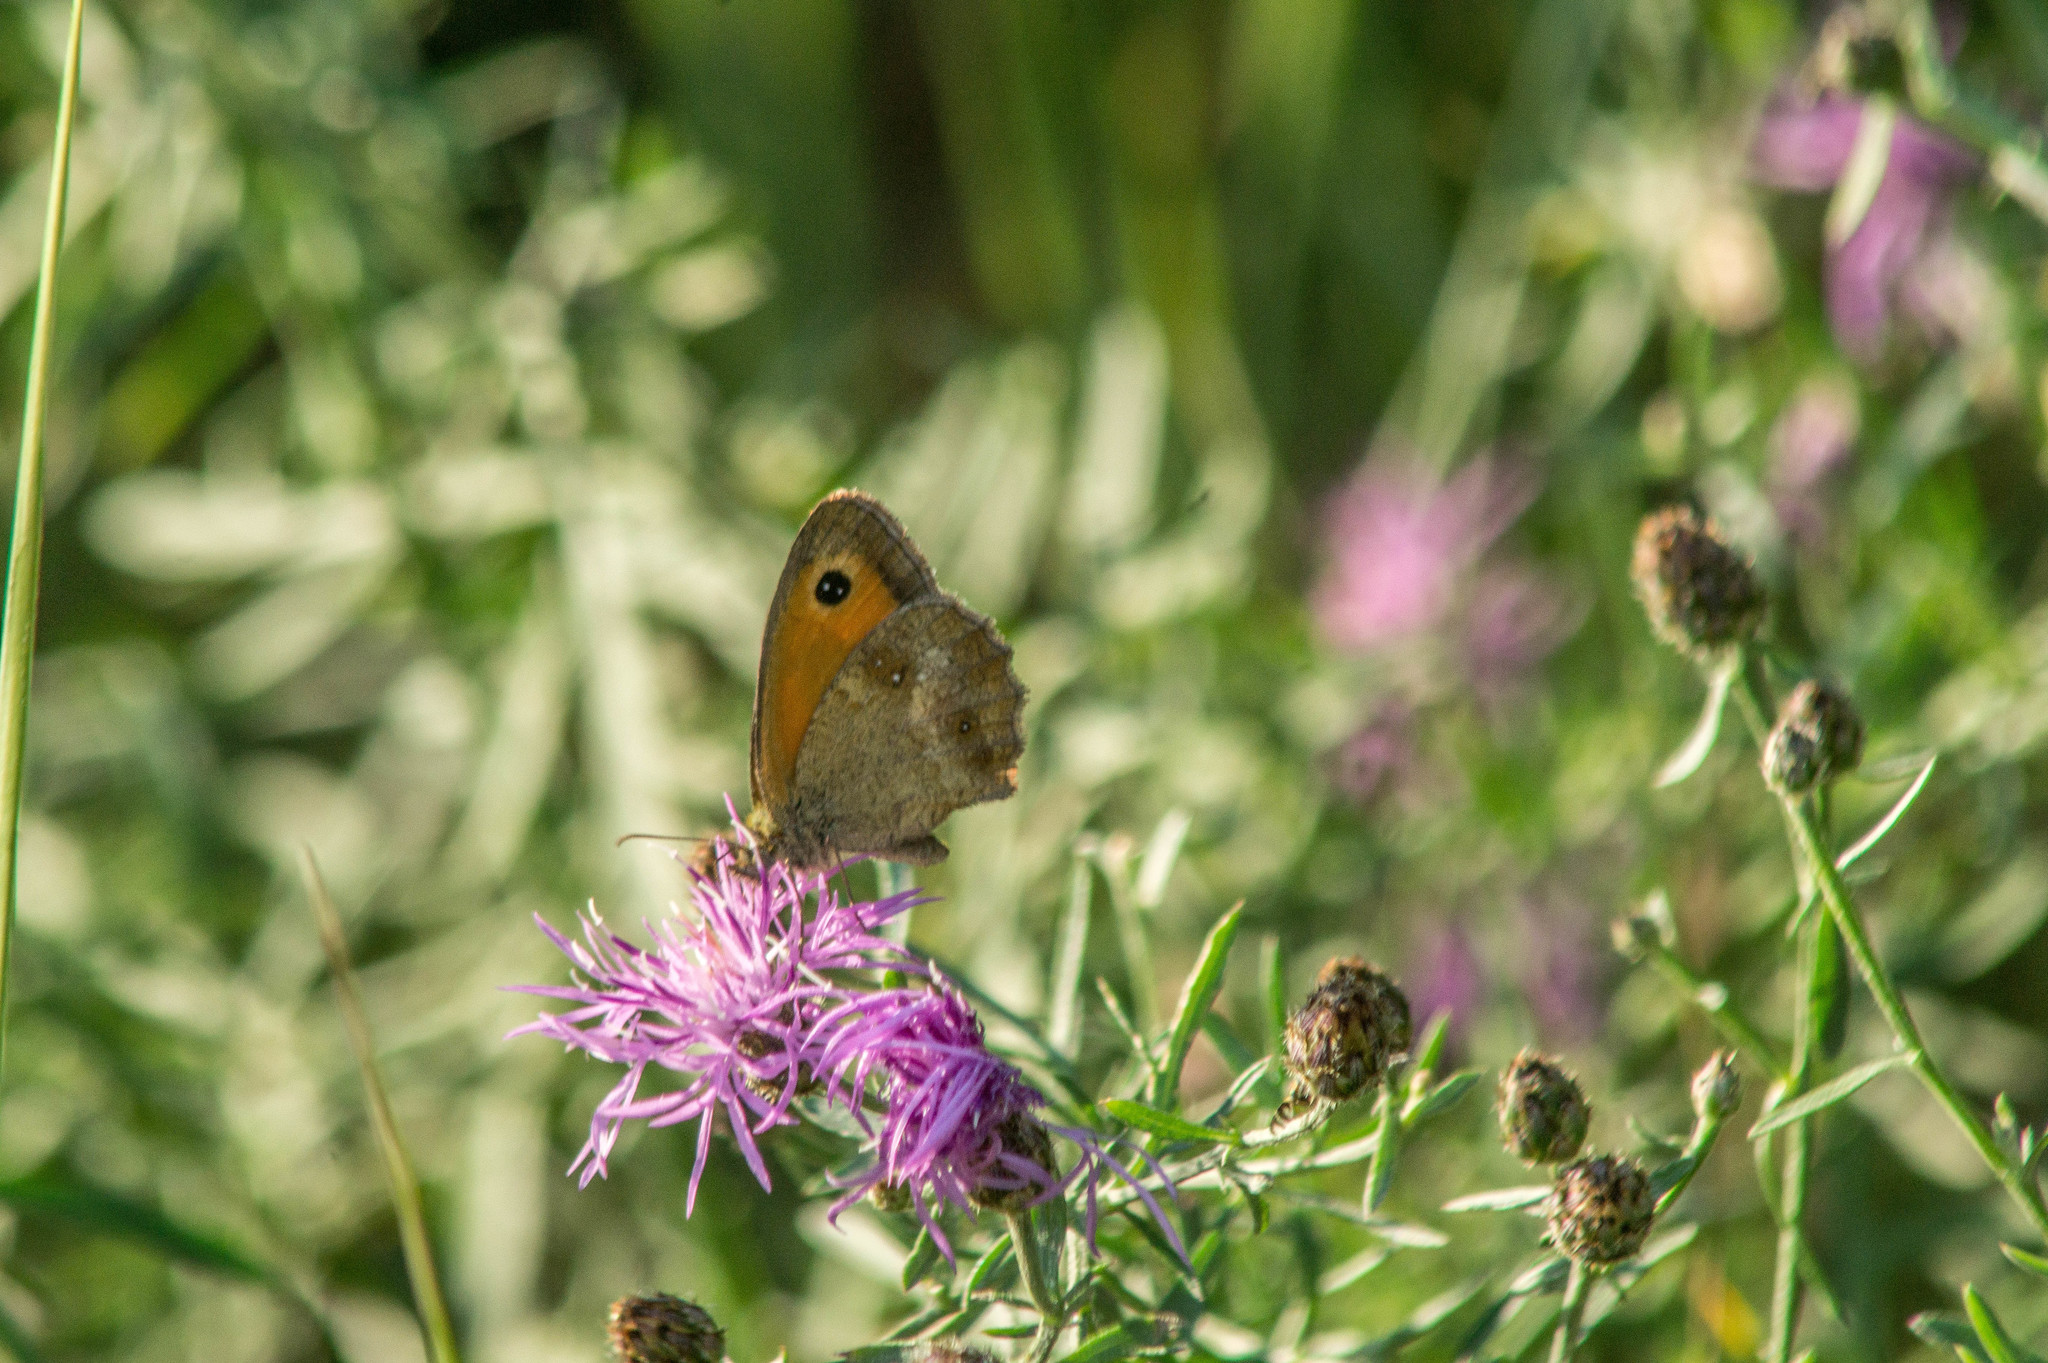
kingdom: Animalia
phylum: Arthropoda
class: Insecta
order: Lepidoptera
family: Nymphalidae
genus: Pyronia
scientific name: Pyronia tithonus
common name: Gatekeeper
